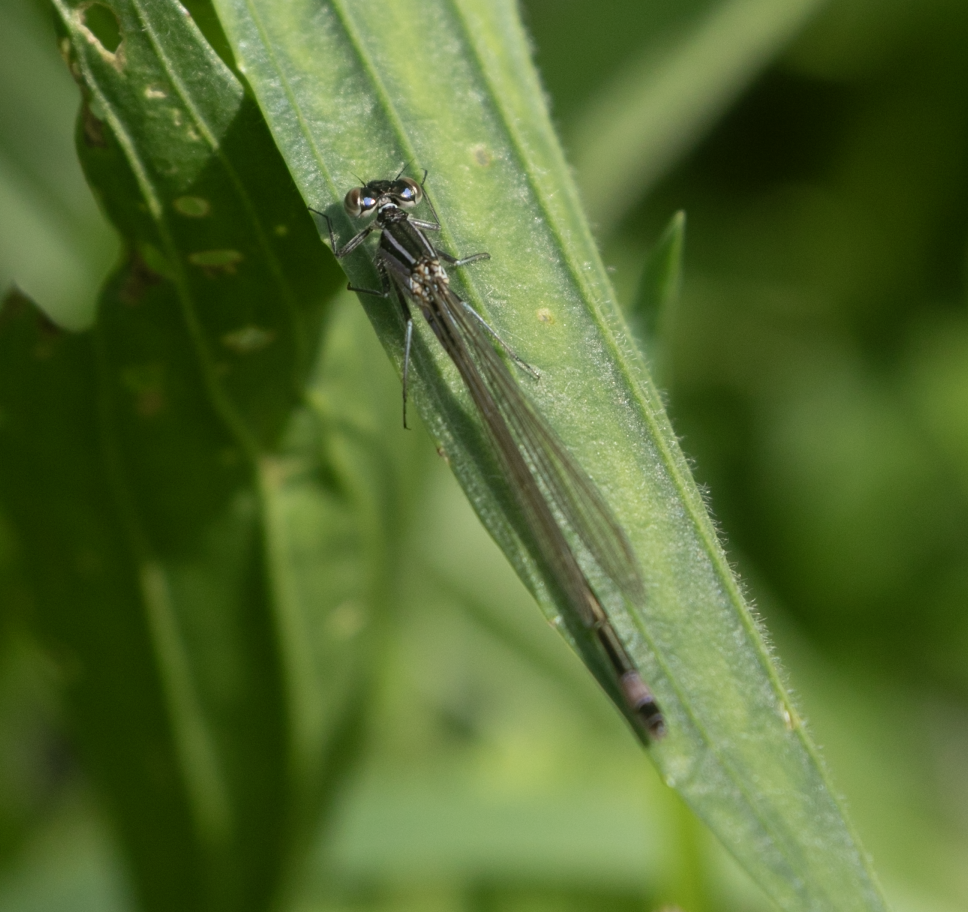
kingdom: Animalia
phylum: Arthropoda
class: Insecta
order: Odonata
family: Coenagrionidae
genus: Ischnura
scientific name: Ischnura elegans
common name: Blue-tailed damselfly
